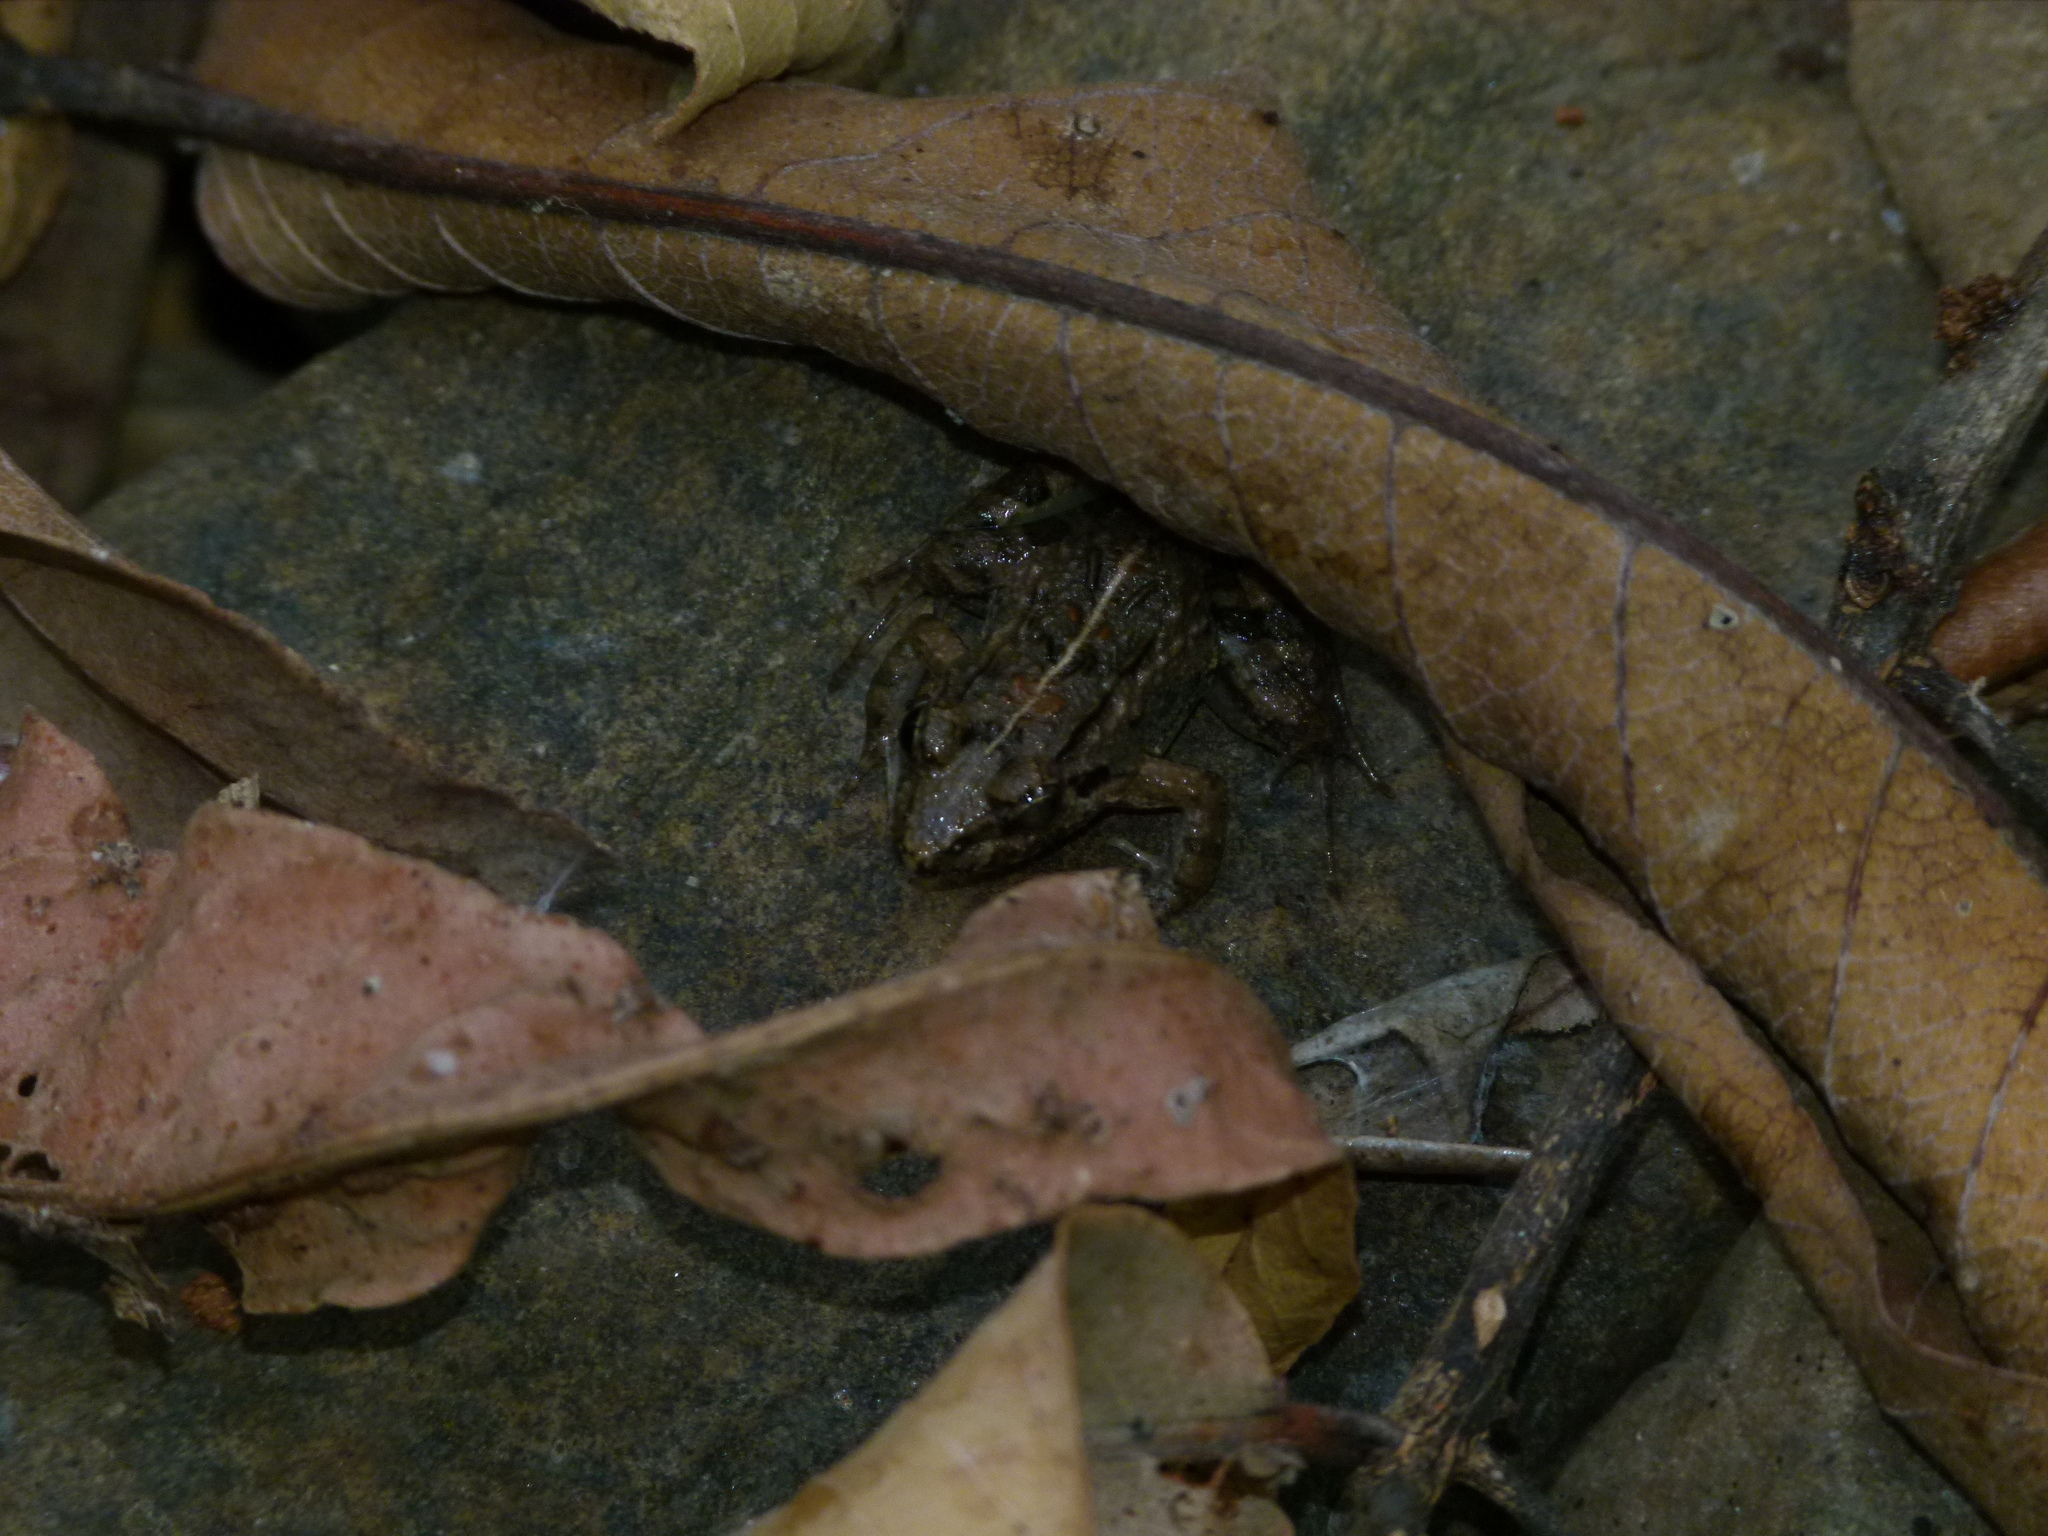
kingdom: Animalia
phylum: Chordata
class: Amphibia
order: Anura
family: Dicroglossidae
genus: Fejervarya
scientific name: Fejervarya limnocharis
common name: Asian grass frog/common pond frog/field frog/grass frog/indian rice frog
